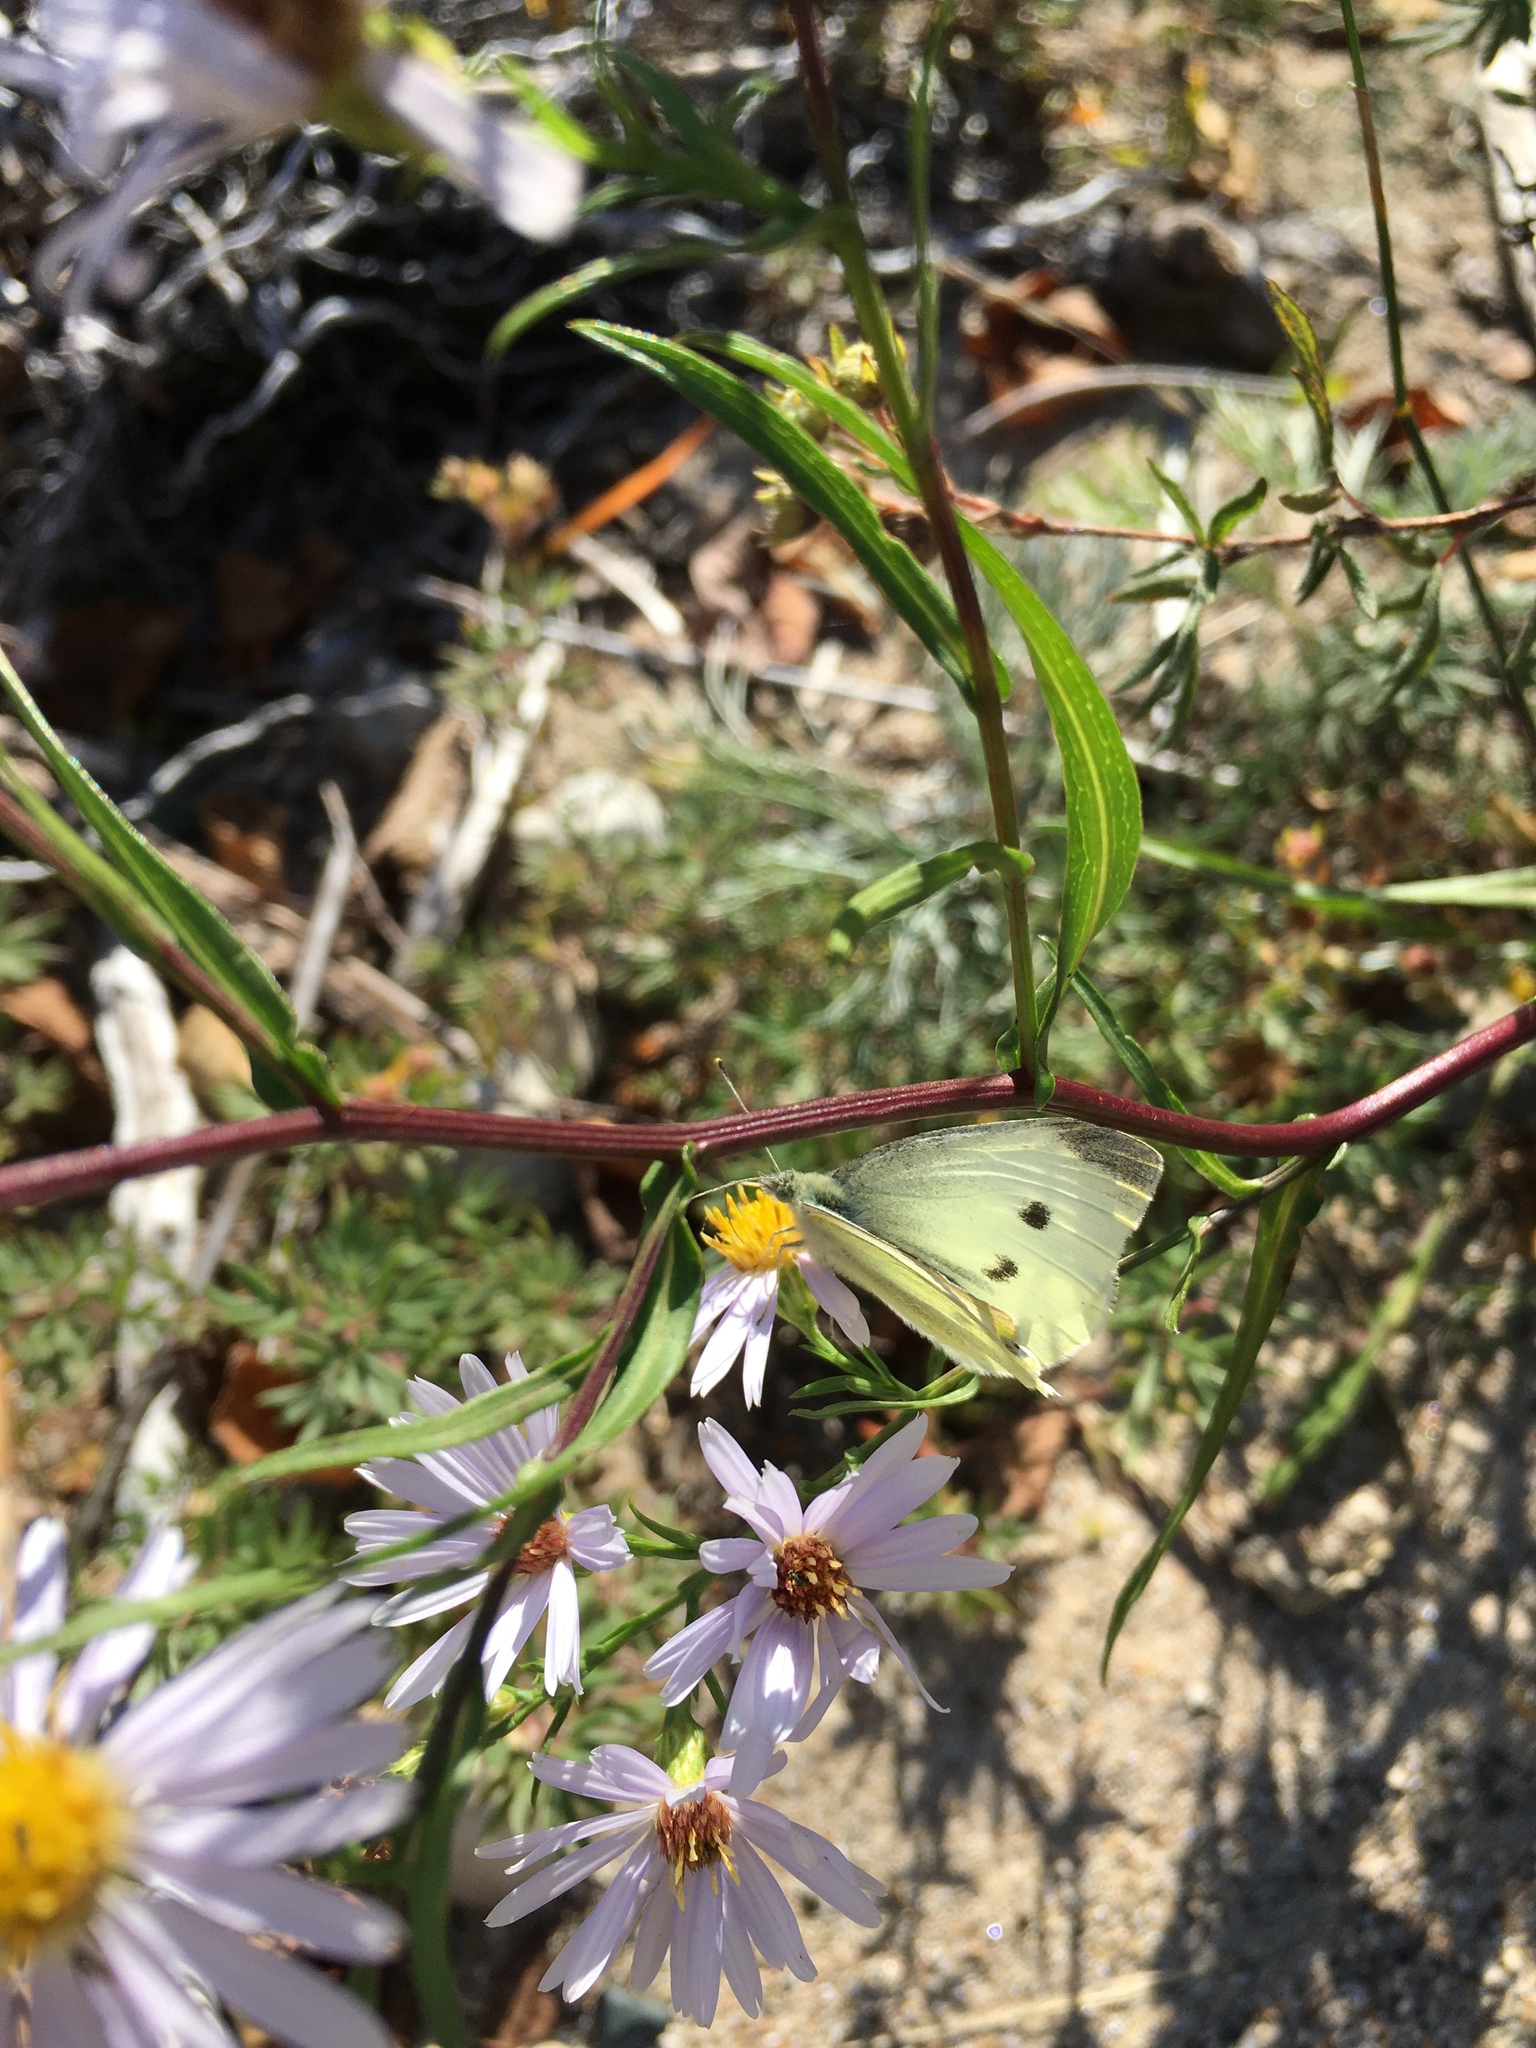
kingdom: Animalia
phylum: Arthropoda
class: Insecta
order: Lepidoptera
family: Pieridae
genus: Pieris
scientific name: Pieris rapae
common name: Small white
